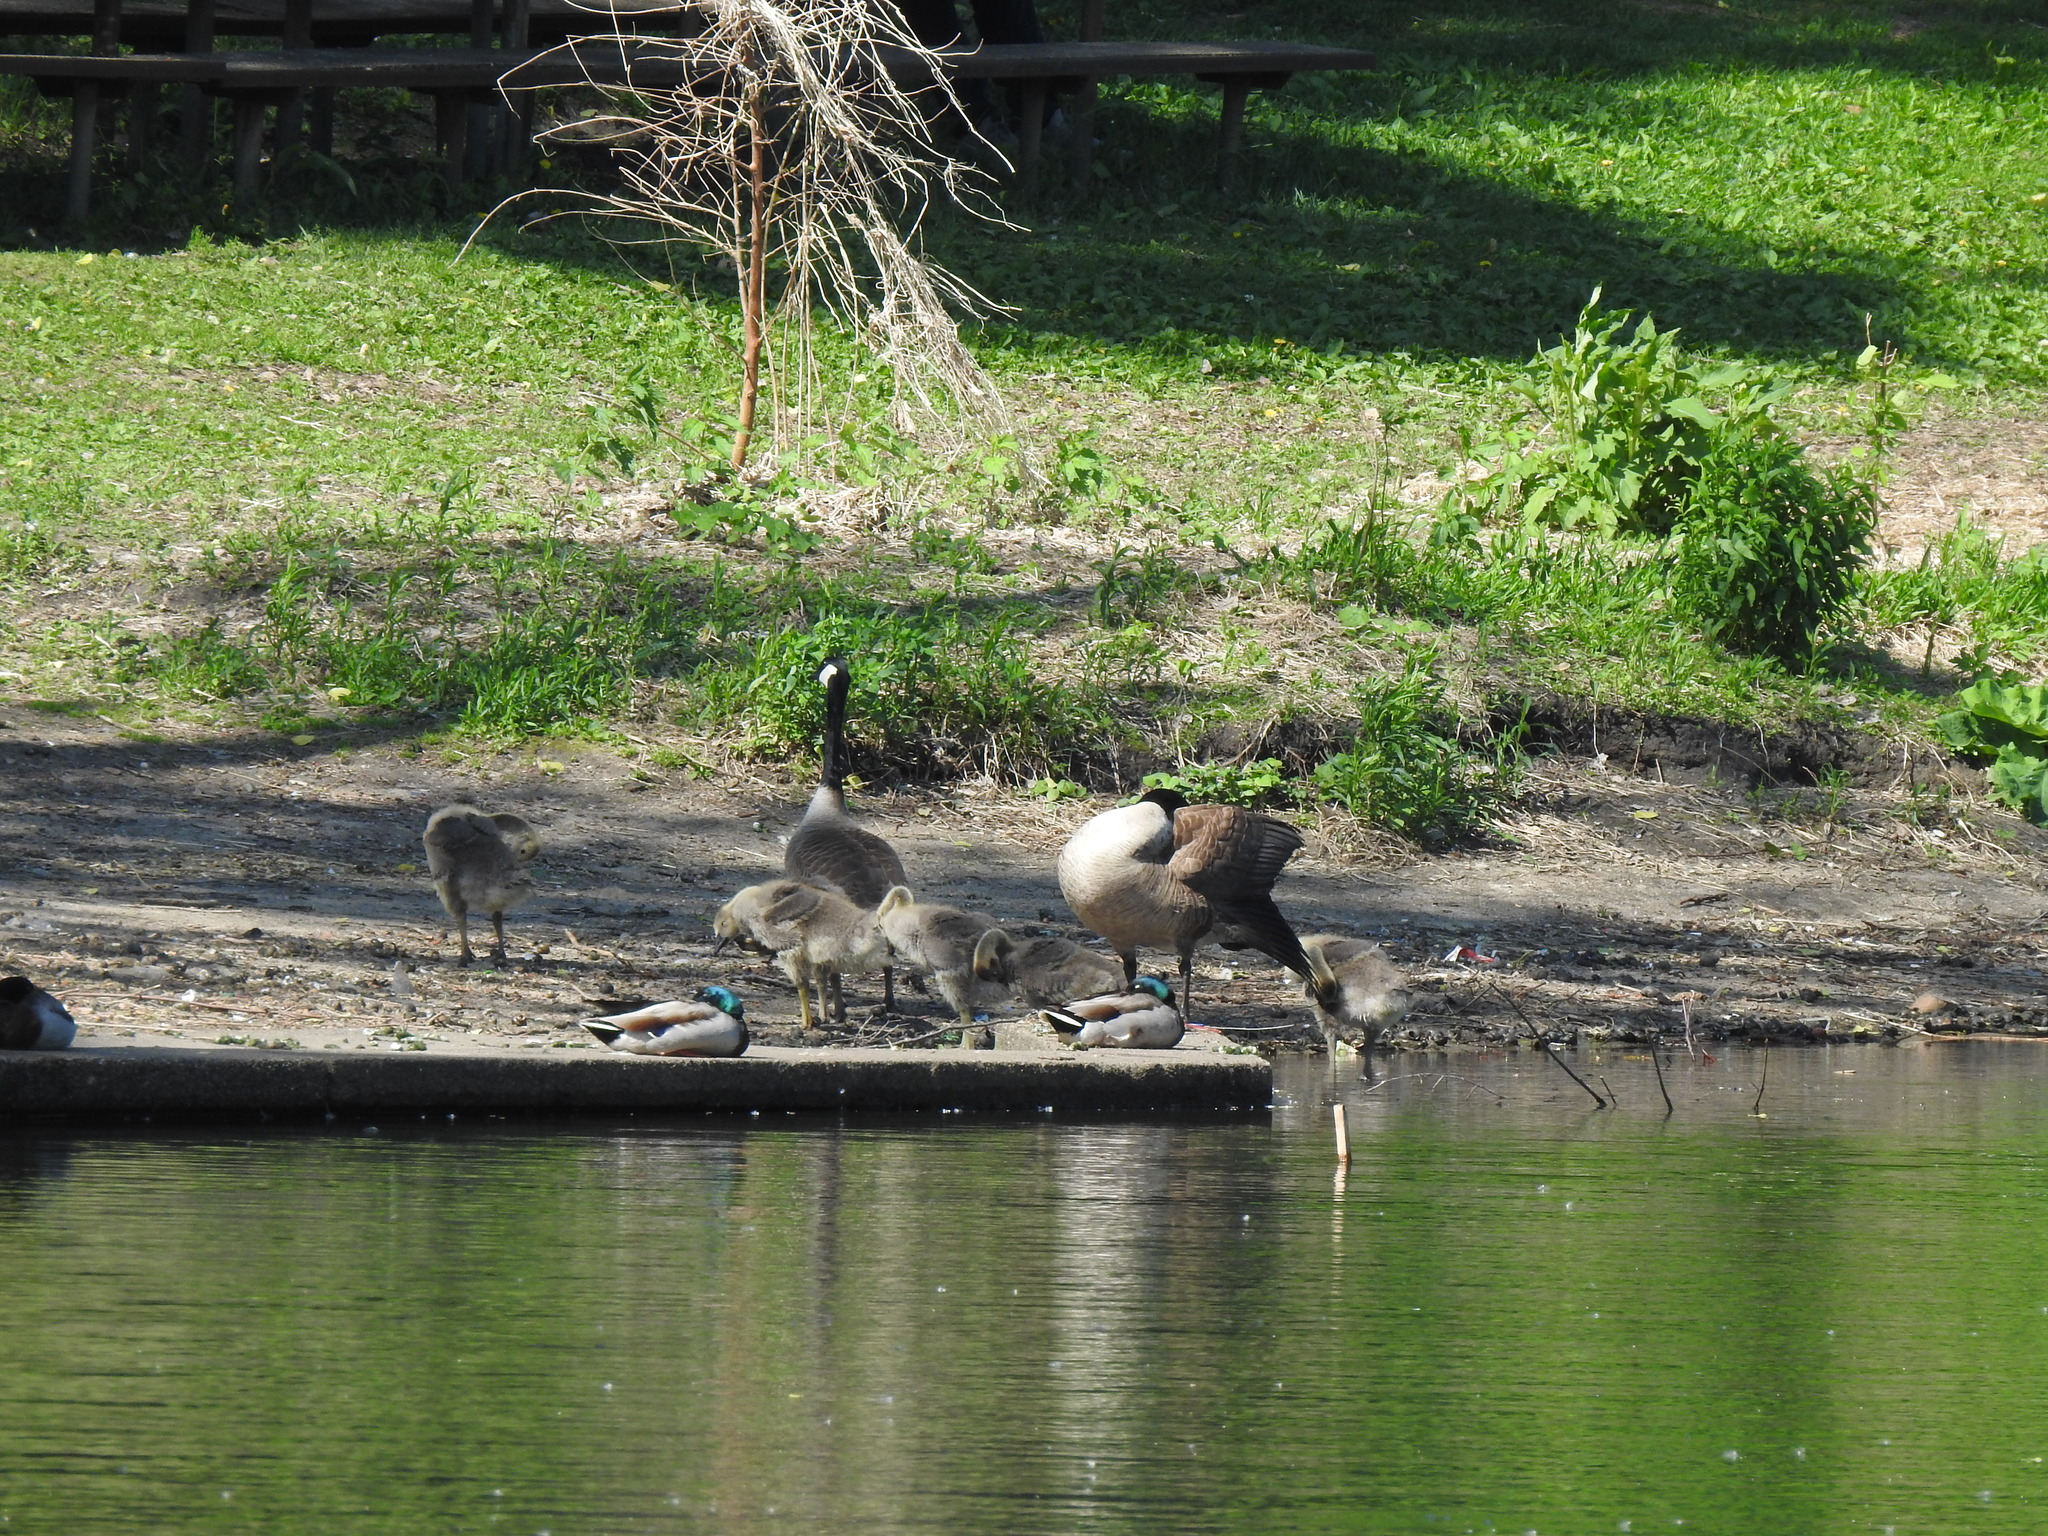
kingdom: Animalia
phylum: Chordata
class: Aves
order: Anseriformes
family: Anatidae
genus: Branta
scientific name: Branta canadensis
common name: Canada goose
